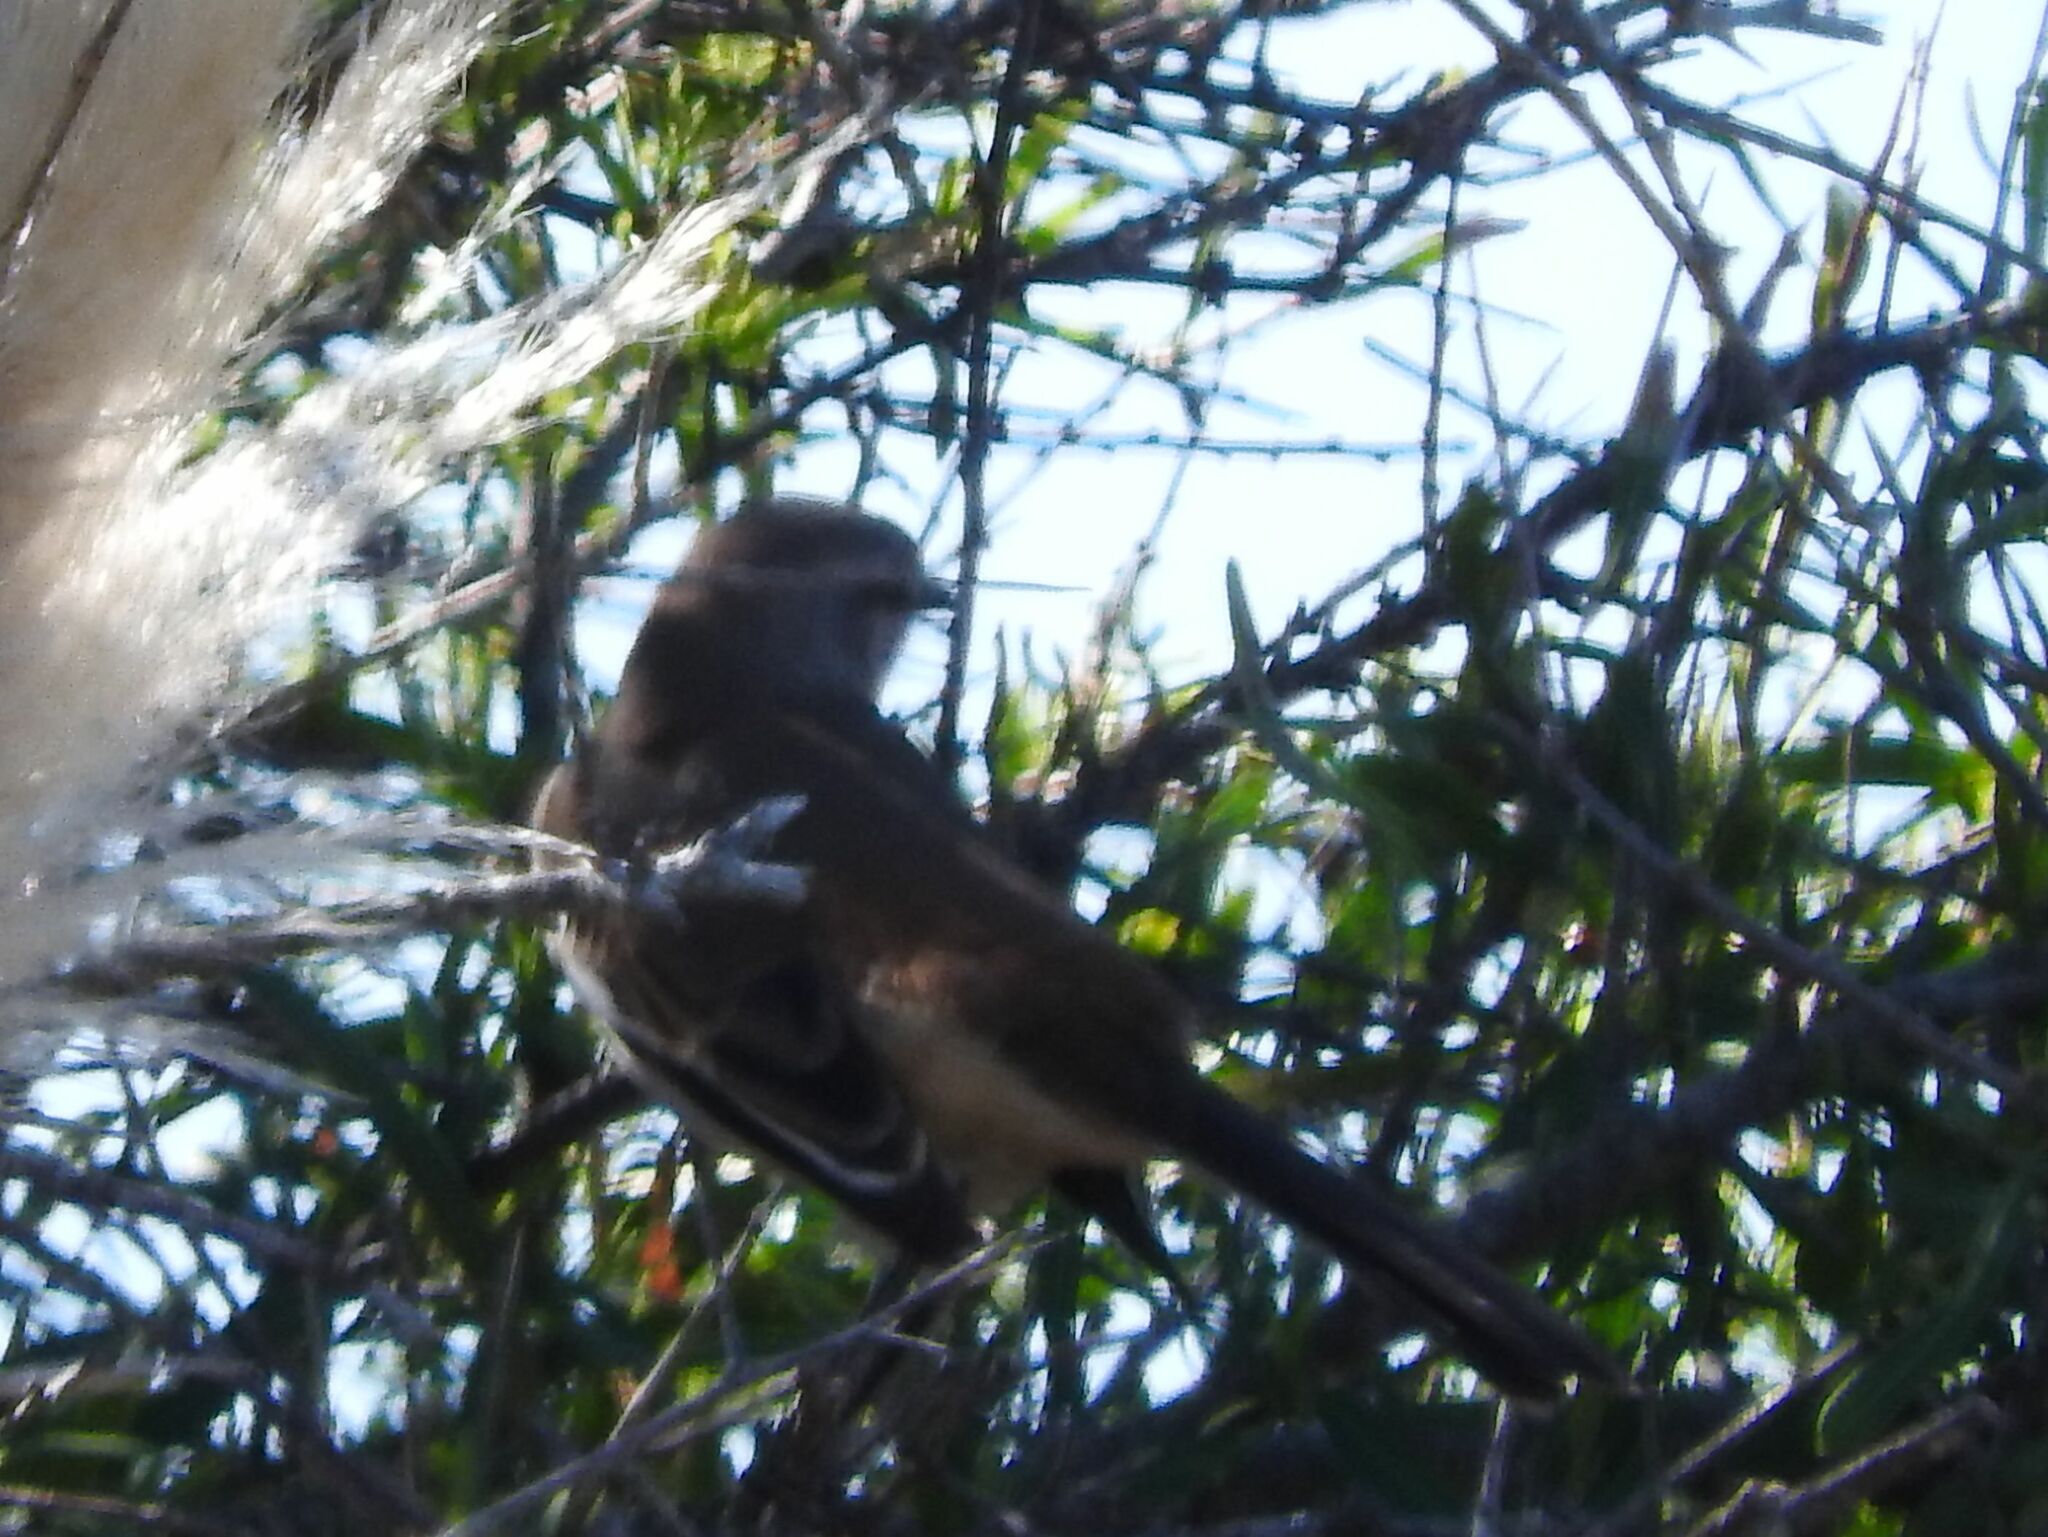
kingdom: Animalia
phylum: Chordata
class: Aves
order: Passeriformes
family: Mimidae
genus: Mimus
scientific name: Mimus triurus
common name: White-banded mockingbird
